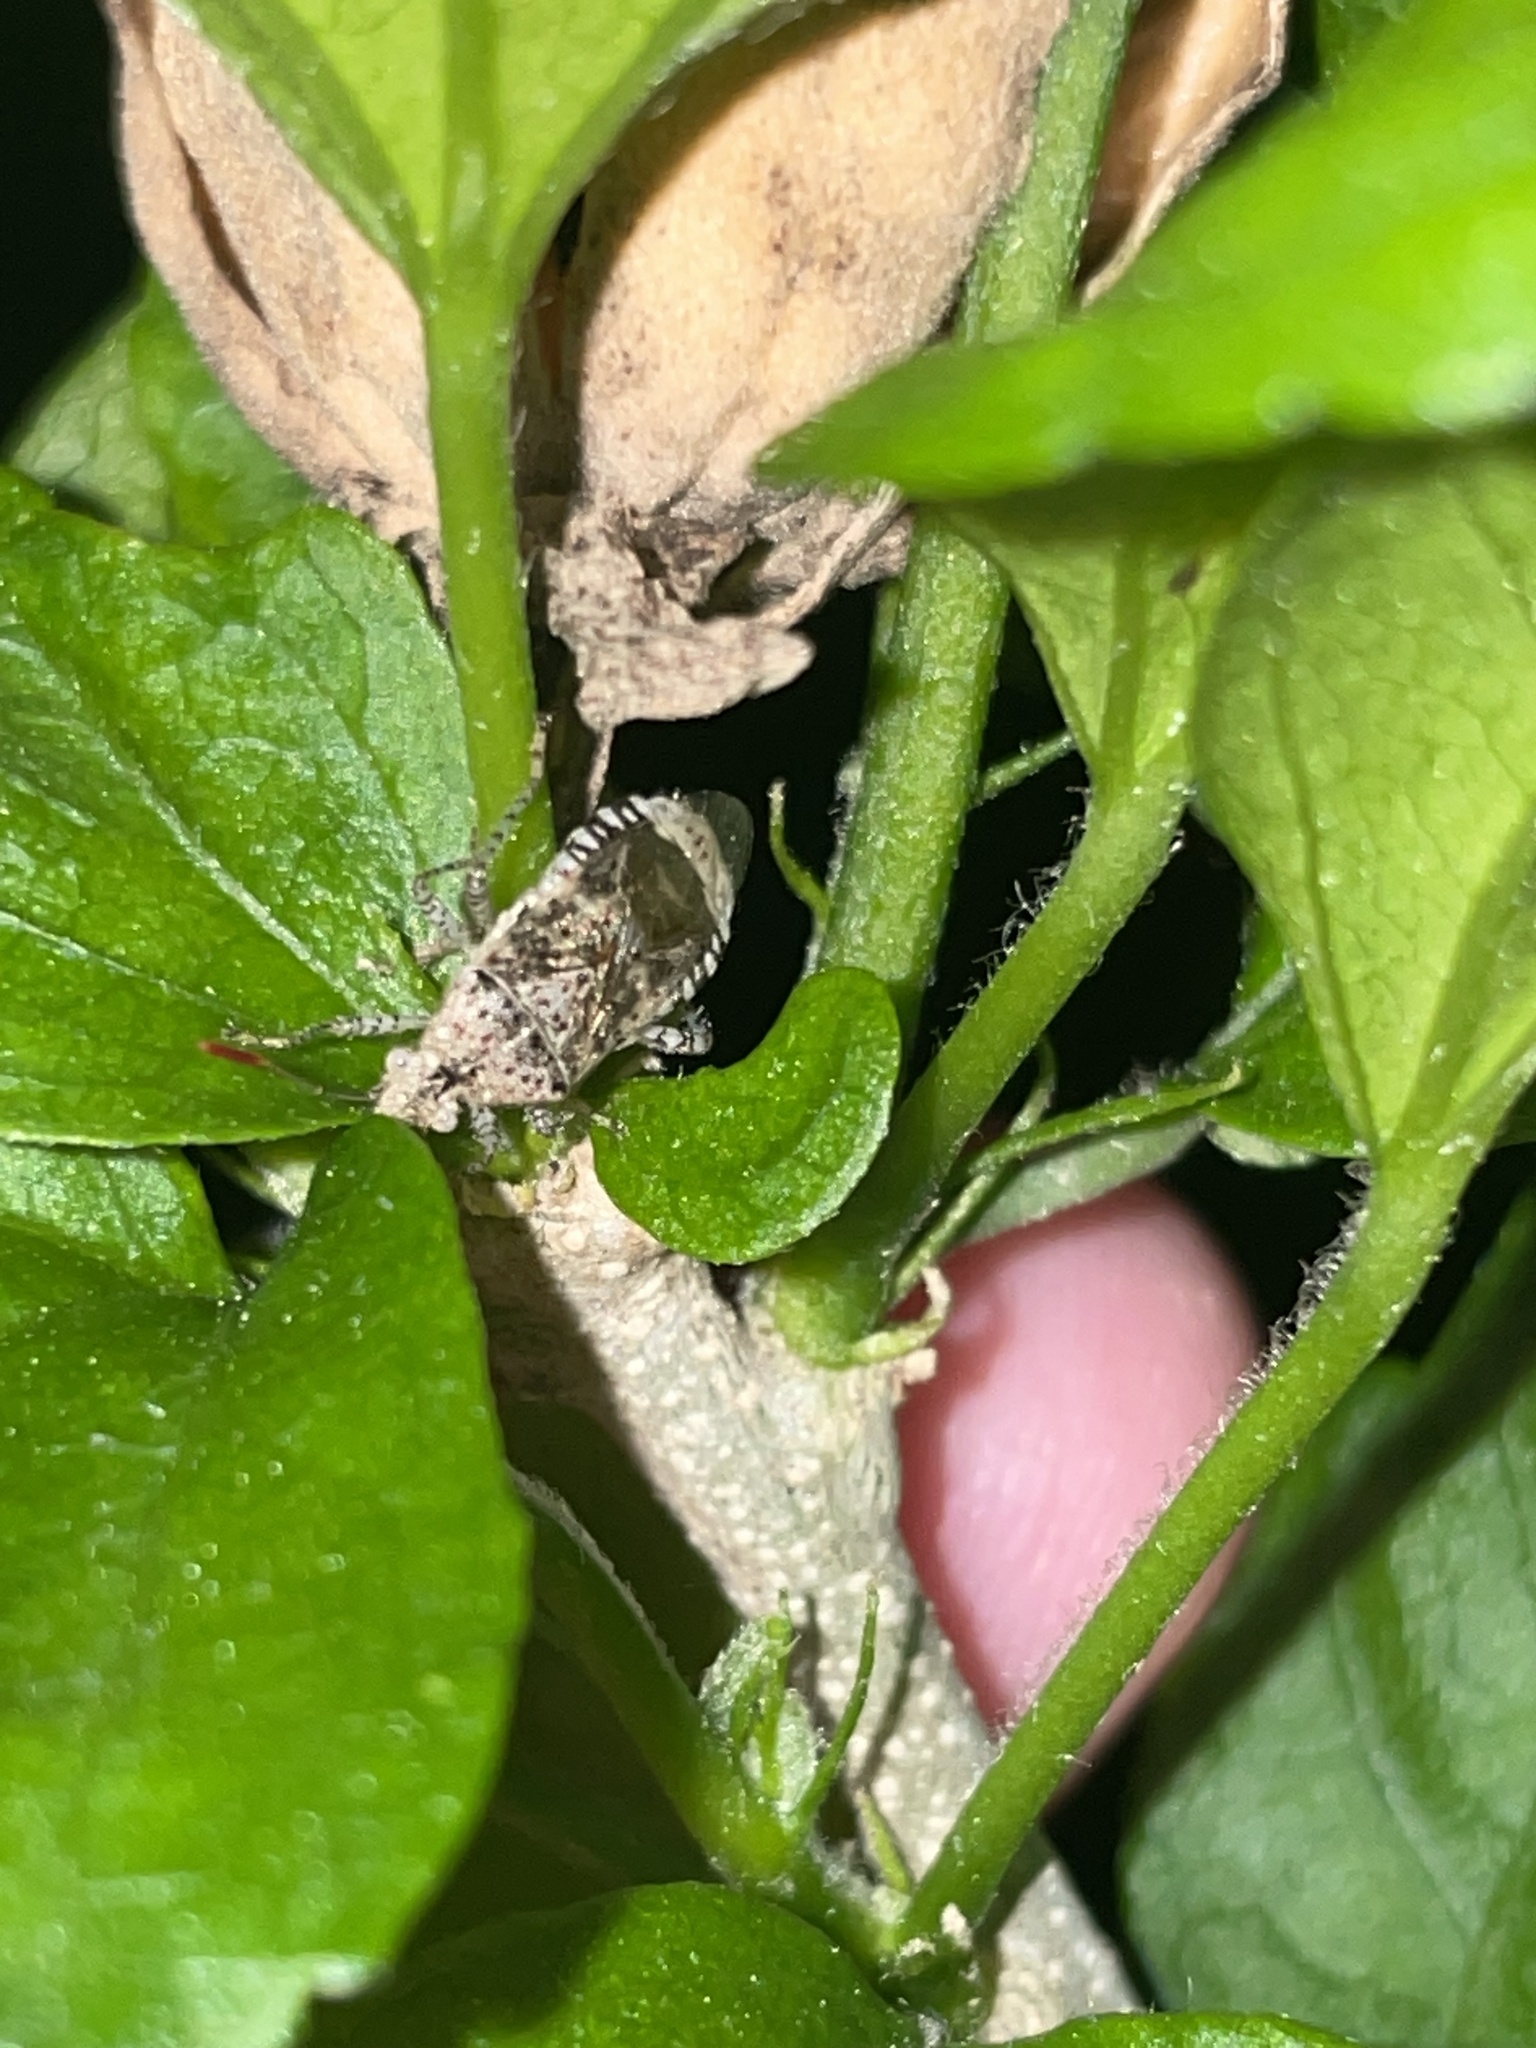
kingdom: Animalia
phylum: Arthropoda
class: Insecta
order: Hemiptera
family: Rhopalidae
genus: Niesthrea
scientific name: Niesthrea louisianica
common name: Scentless plant bug
